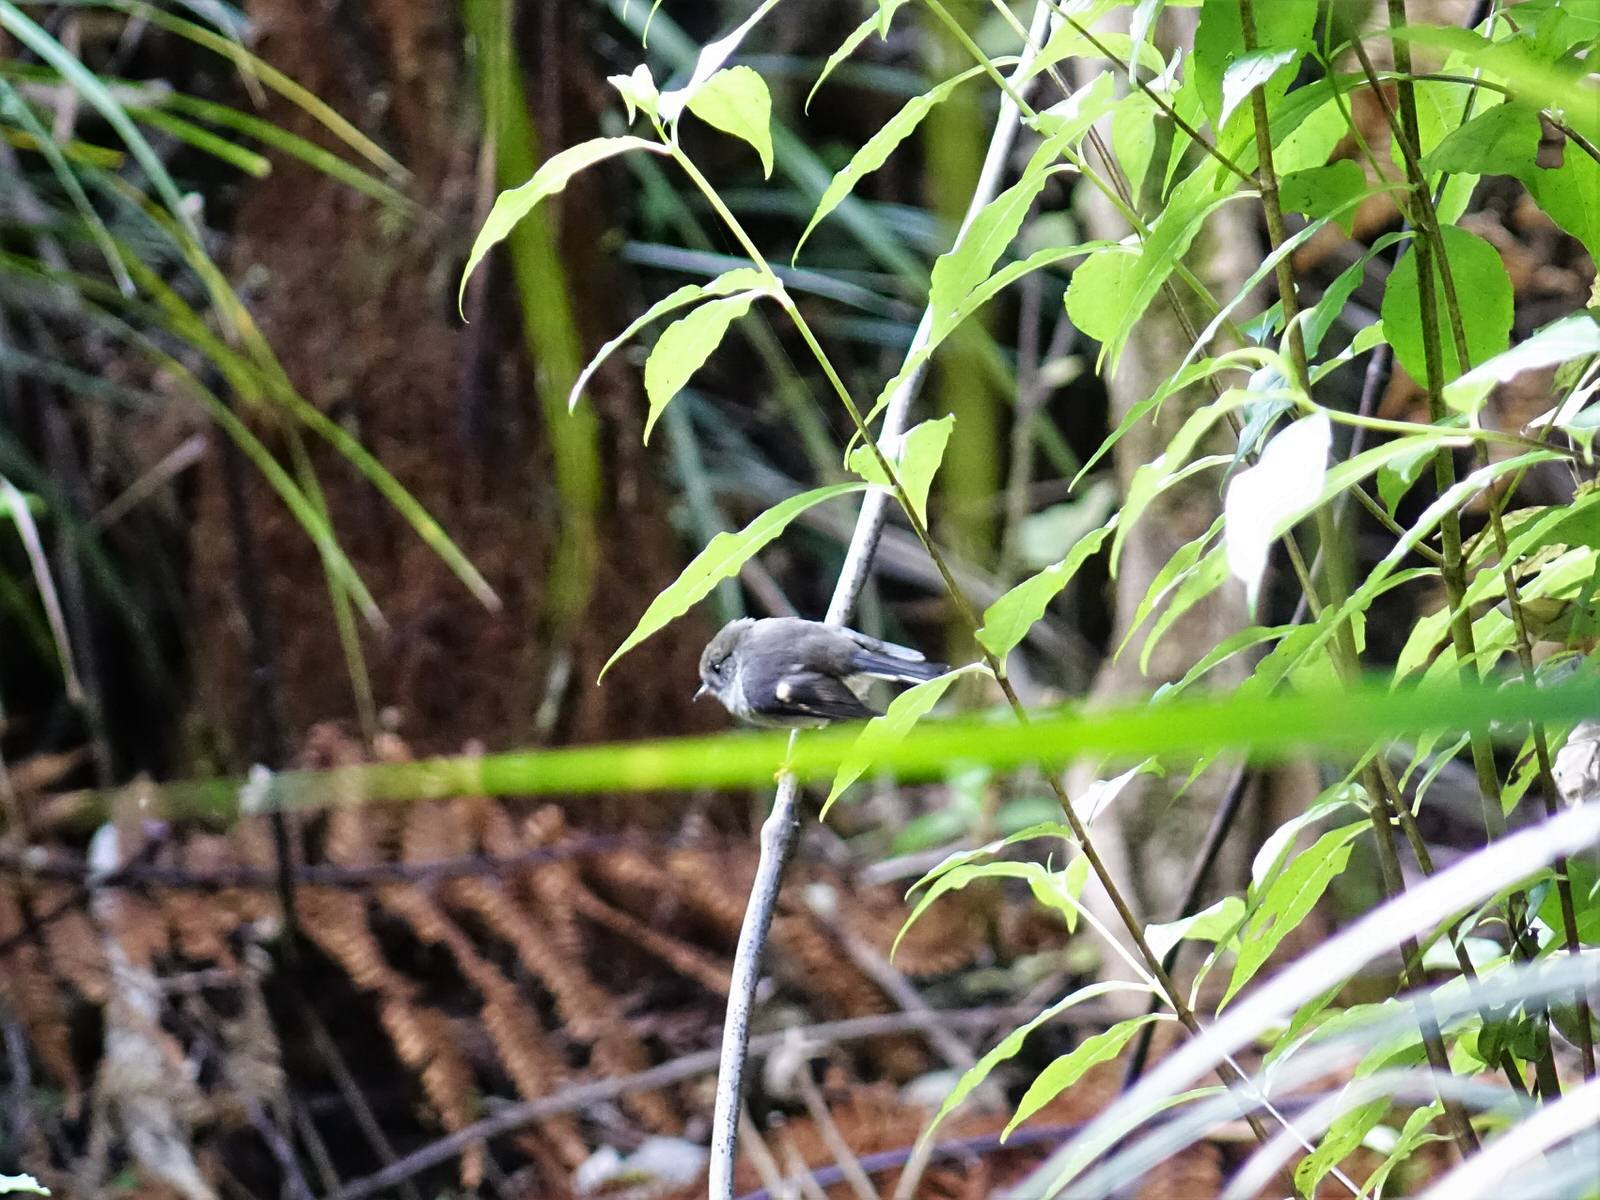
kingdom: Animalia
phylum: Chordata
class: Aves
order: Passeriformes
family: Petroicidae
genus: Petroica
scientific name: Petroica macrocephala
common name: Tomtit
